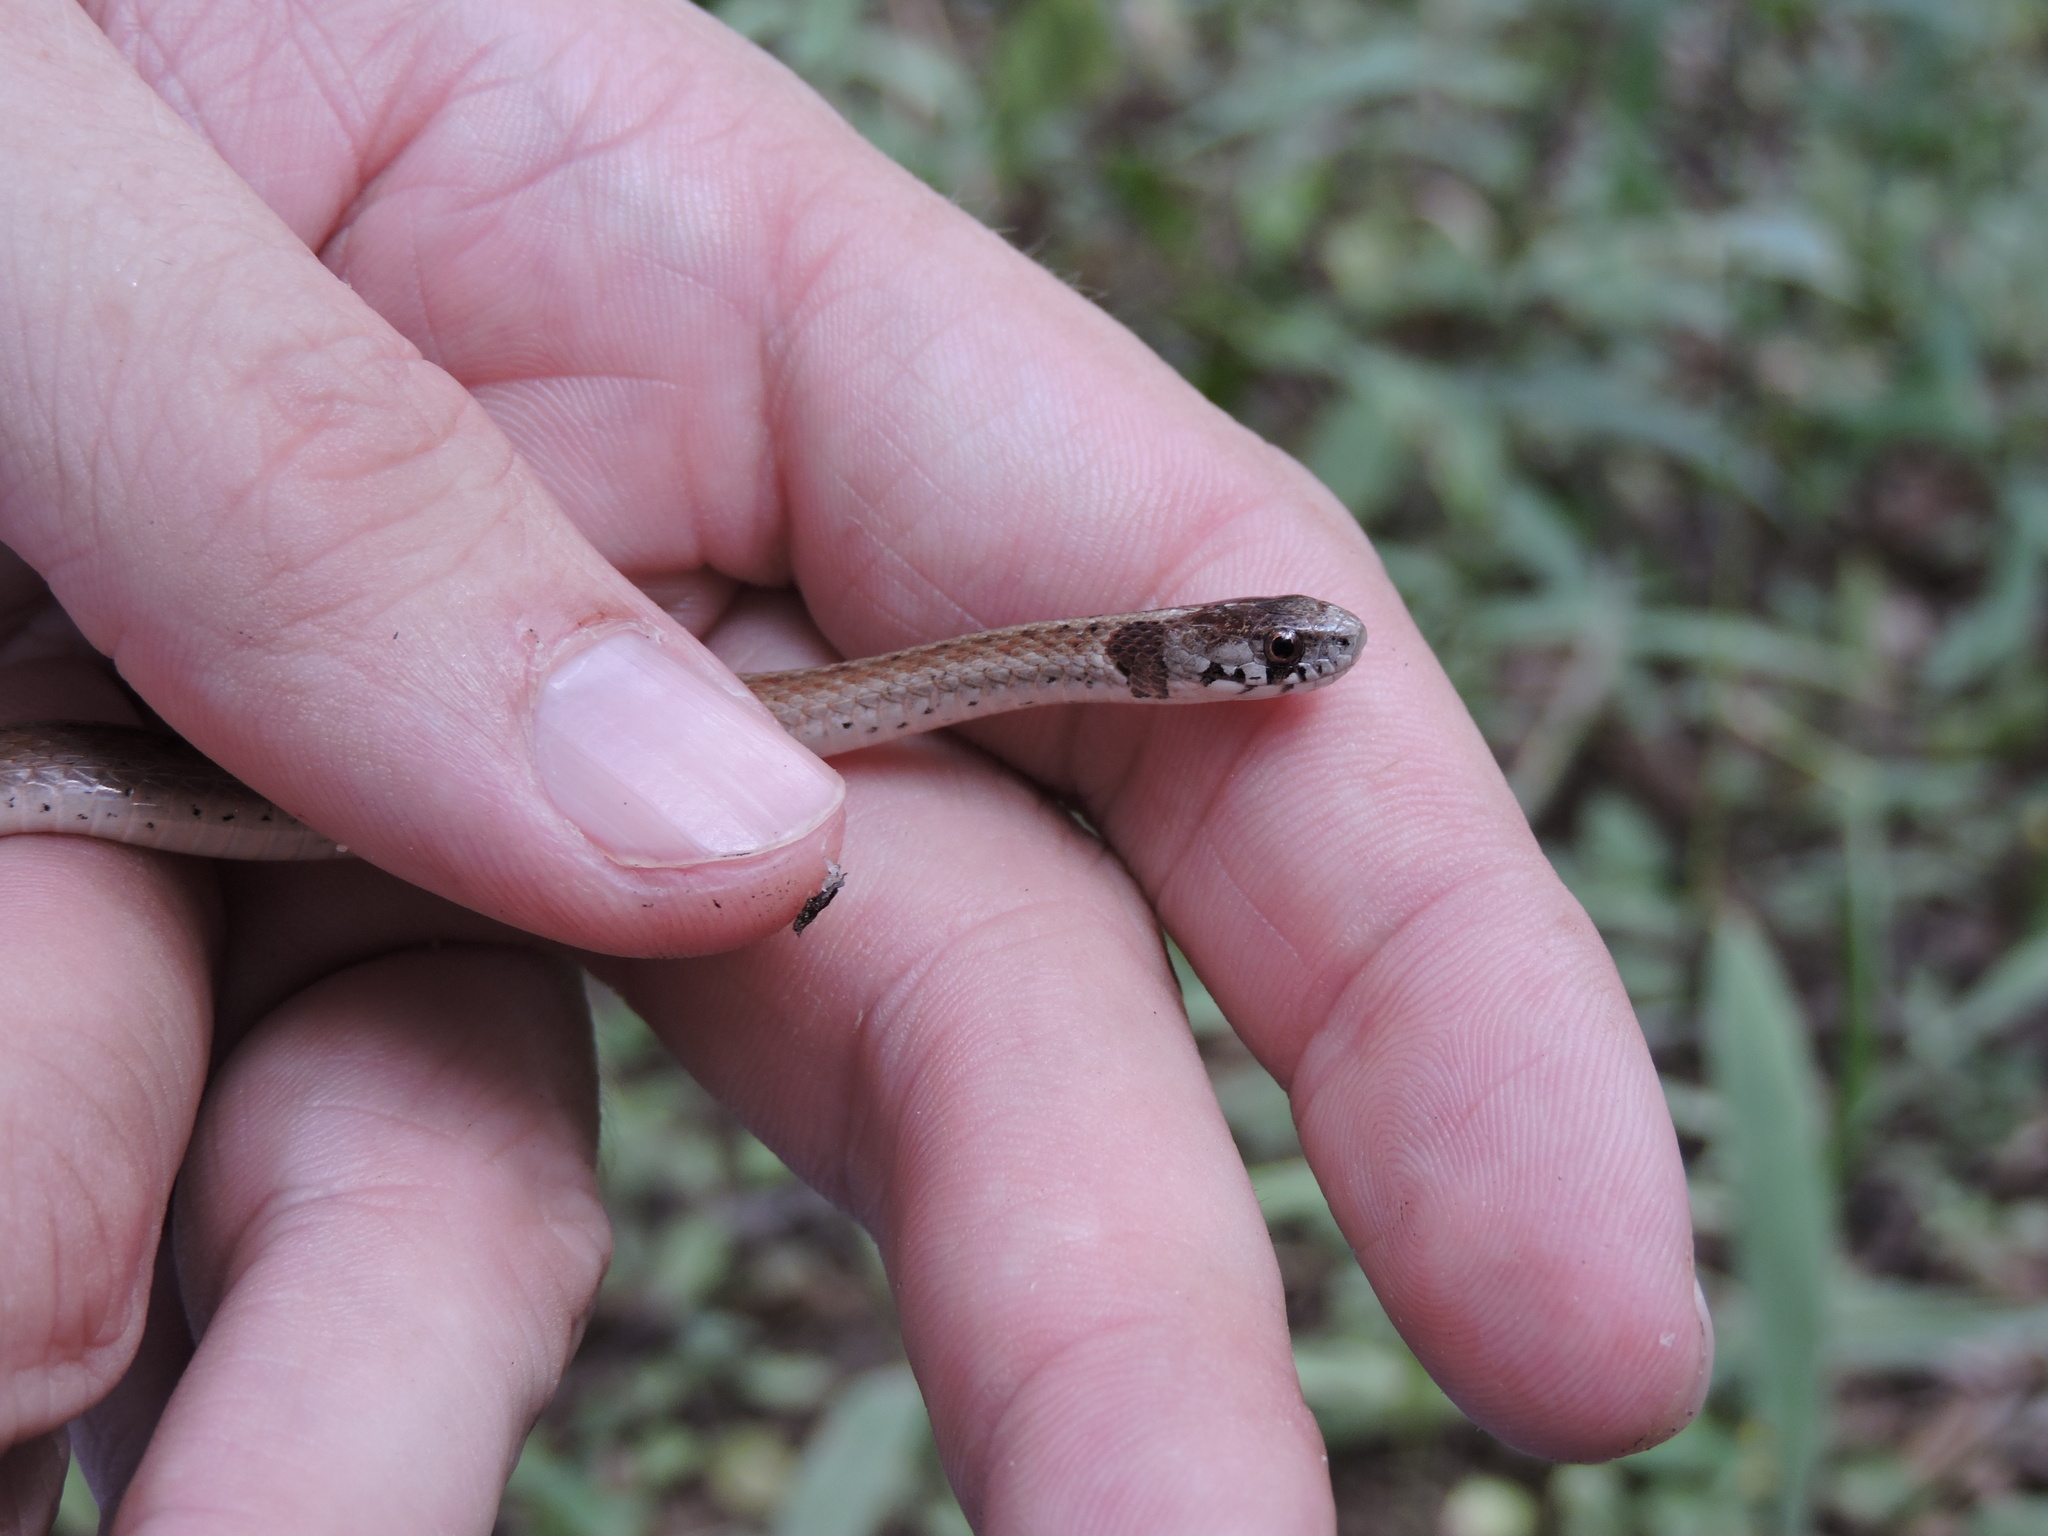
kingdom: Animalia
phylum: Chordata
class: Squamata
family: Colubridae
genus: Storeria
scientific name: Storeria dekayi
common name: (dekay’s) brown snake
